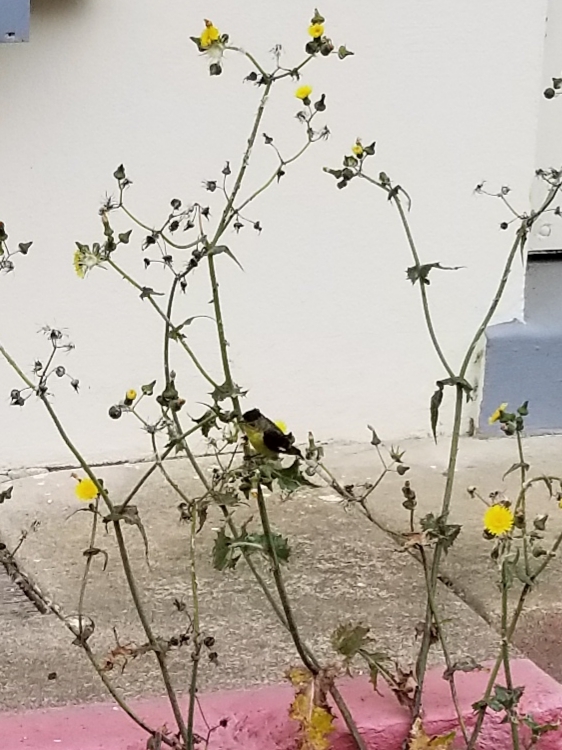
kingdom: Animalia
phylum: Chordata
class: Aves
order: Passeriformes
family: Fringillidae
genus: Spinus
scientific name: Spinus psaltria
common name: Lesser goldfinch
